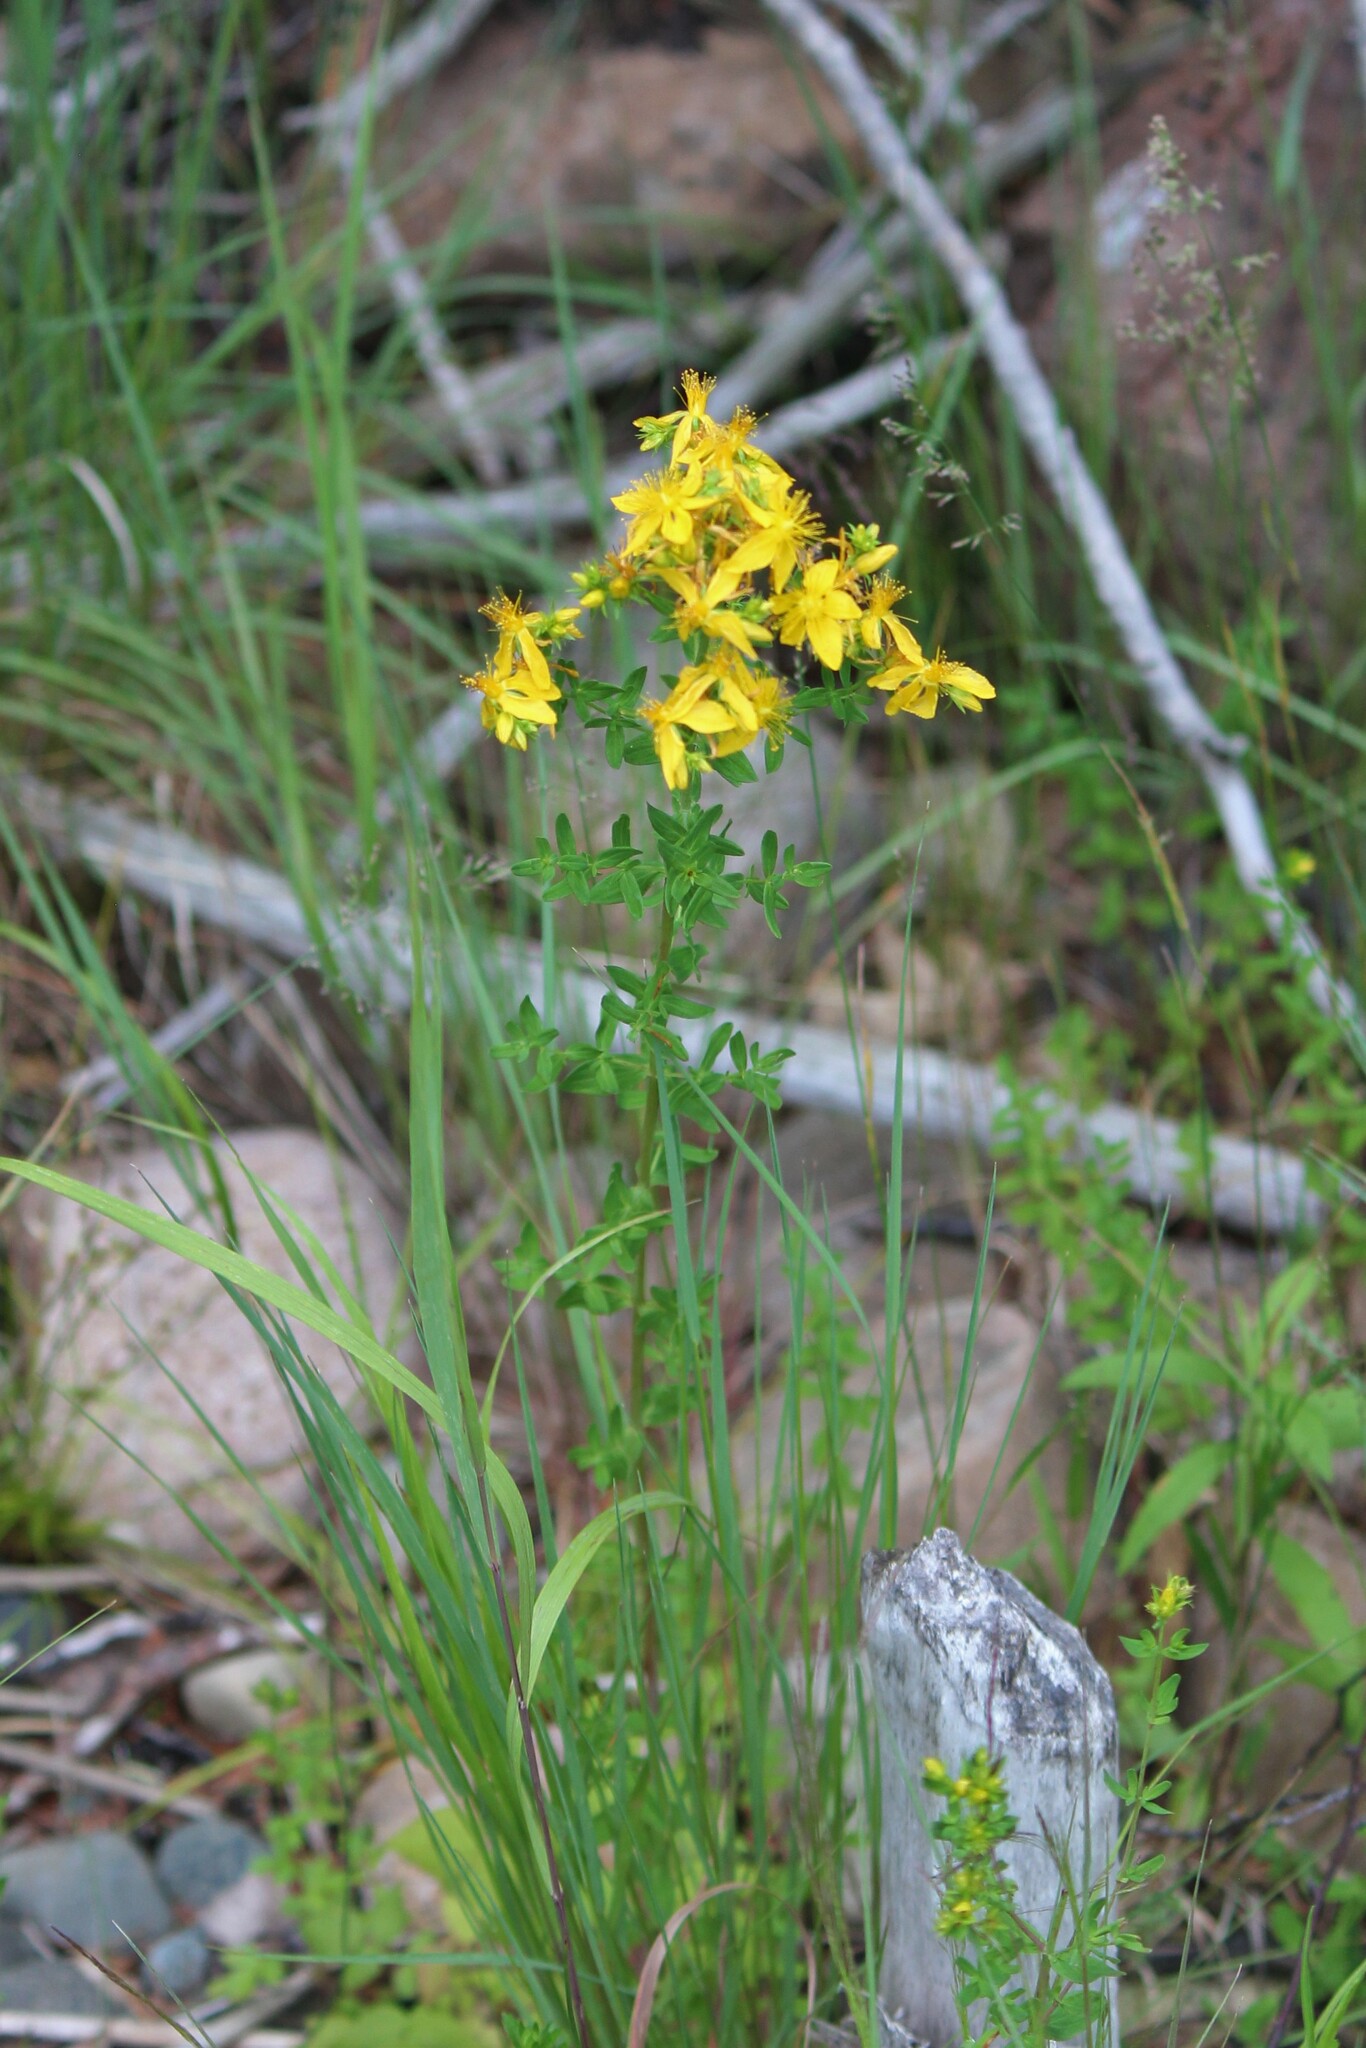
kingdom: Plantae
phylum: Tracheophyta
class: Magnoliopsida
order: Malpighiales
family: Hypericaceae
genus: Hypericum
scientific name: Hypericum perforatum
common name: Common st. johnswort
